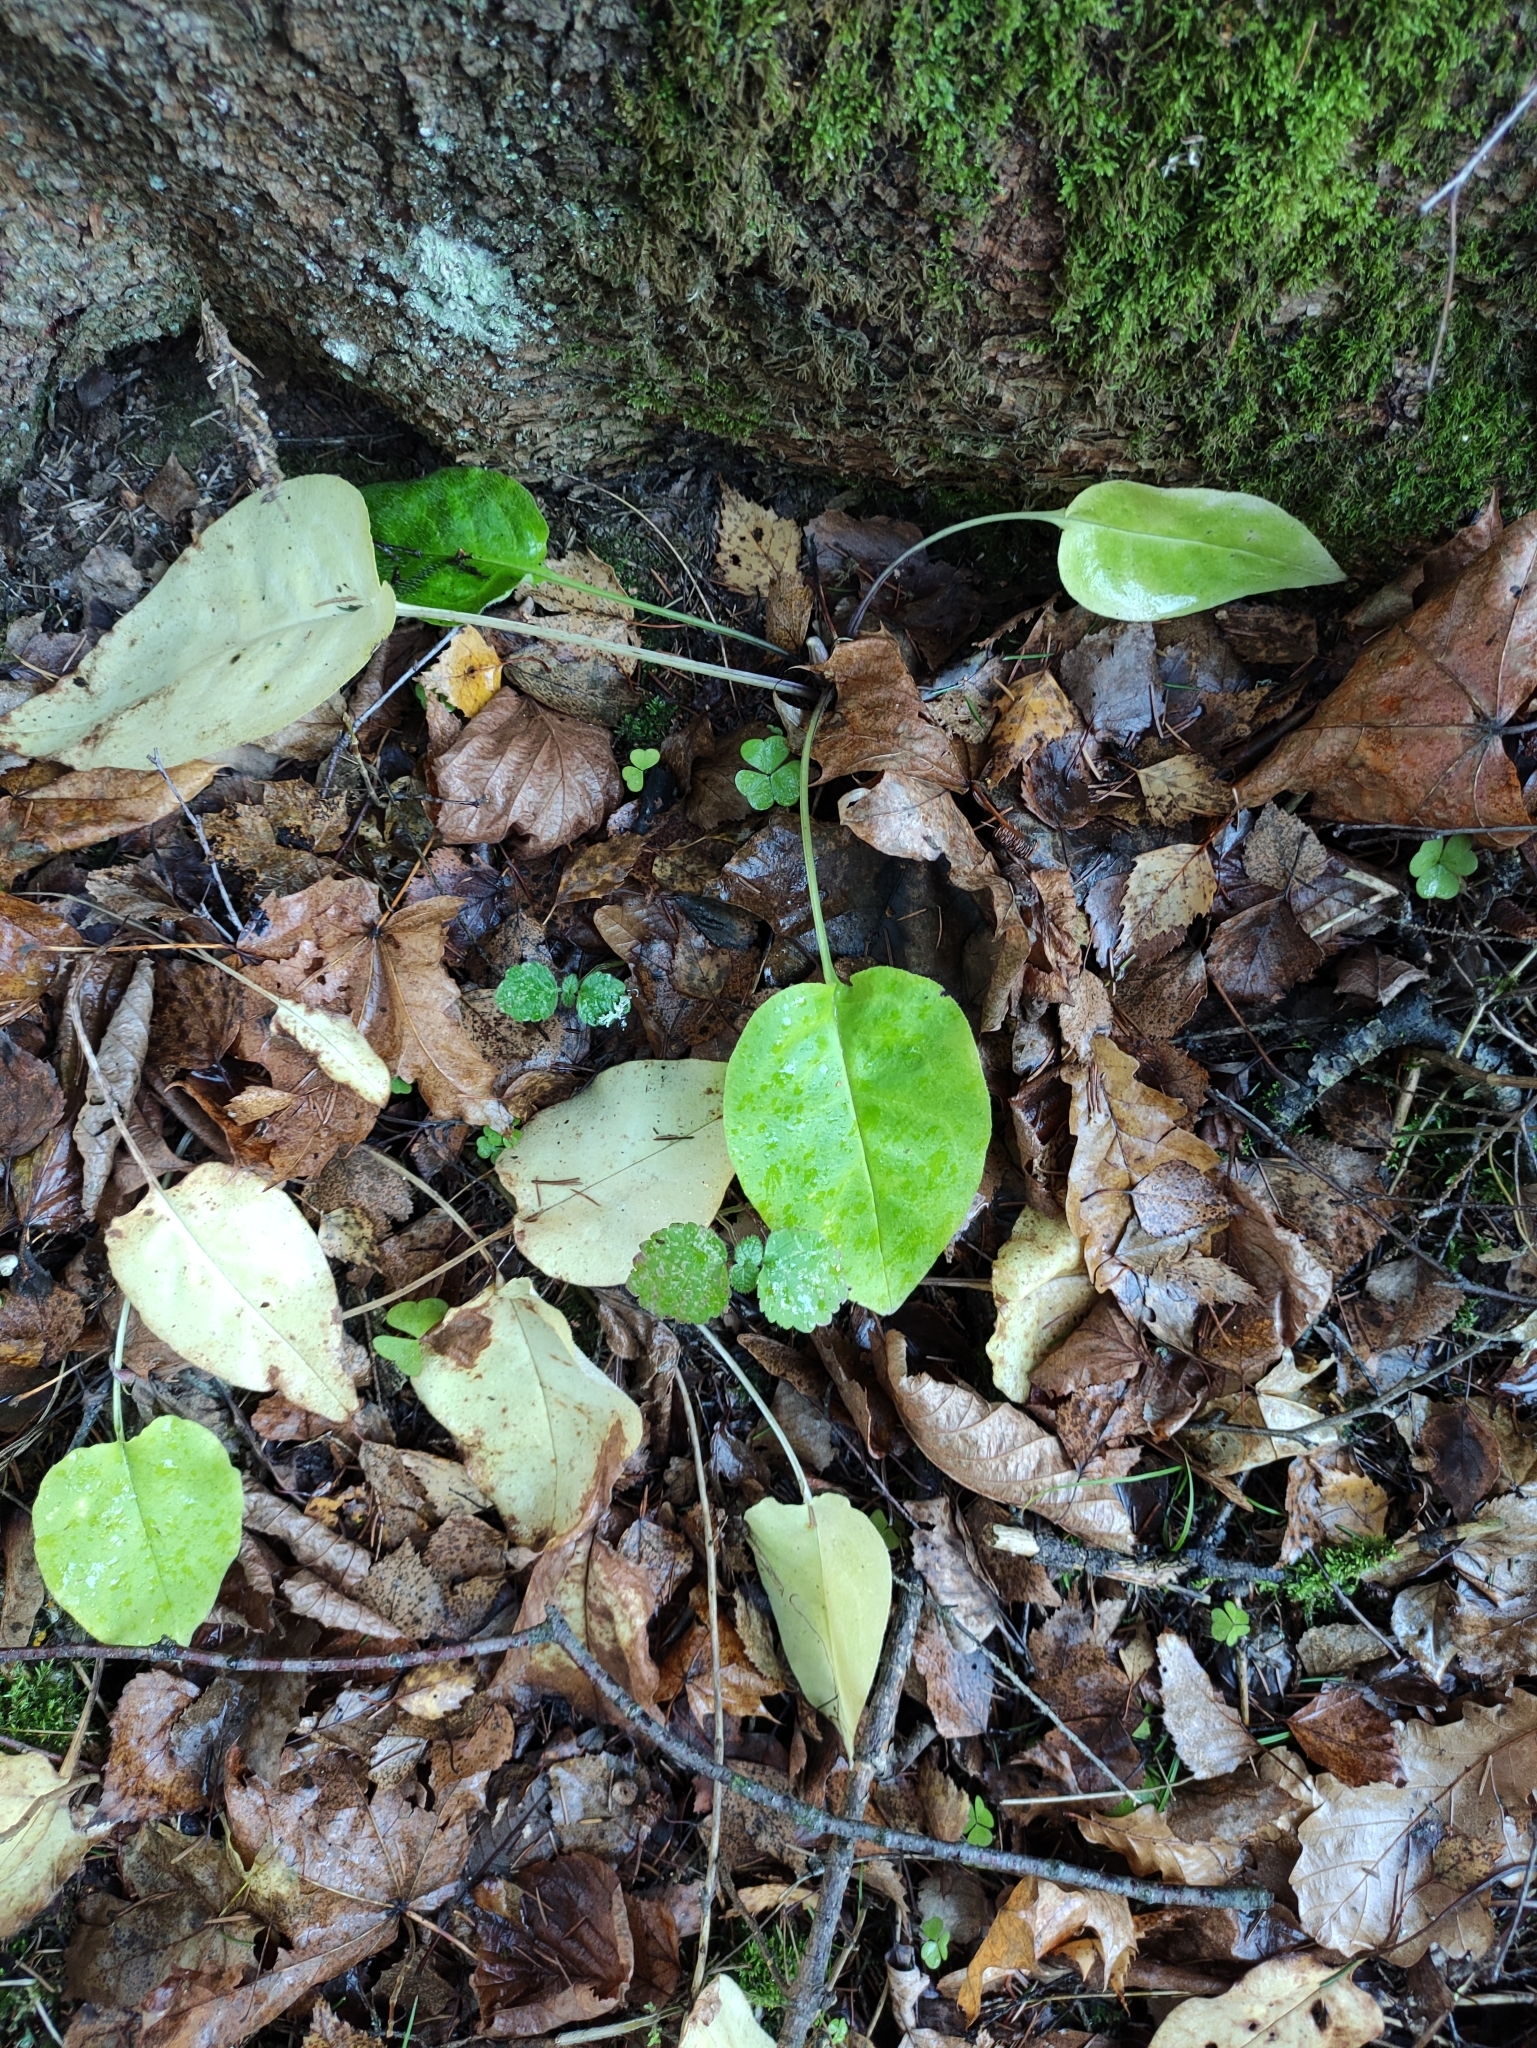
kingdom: Plantae
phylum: Tracheophyta
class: Magnoliopsida
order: Boraginales
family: Boraginaceae
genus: Pulmonaria
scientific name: Pulmonaria obscura
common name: Suffolk lungwort
